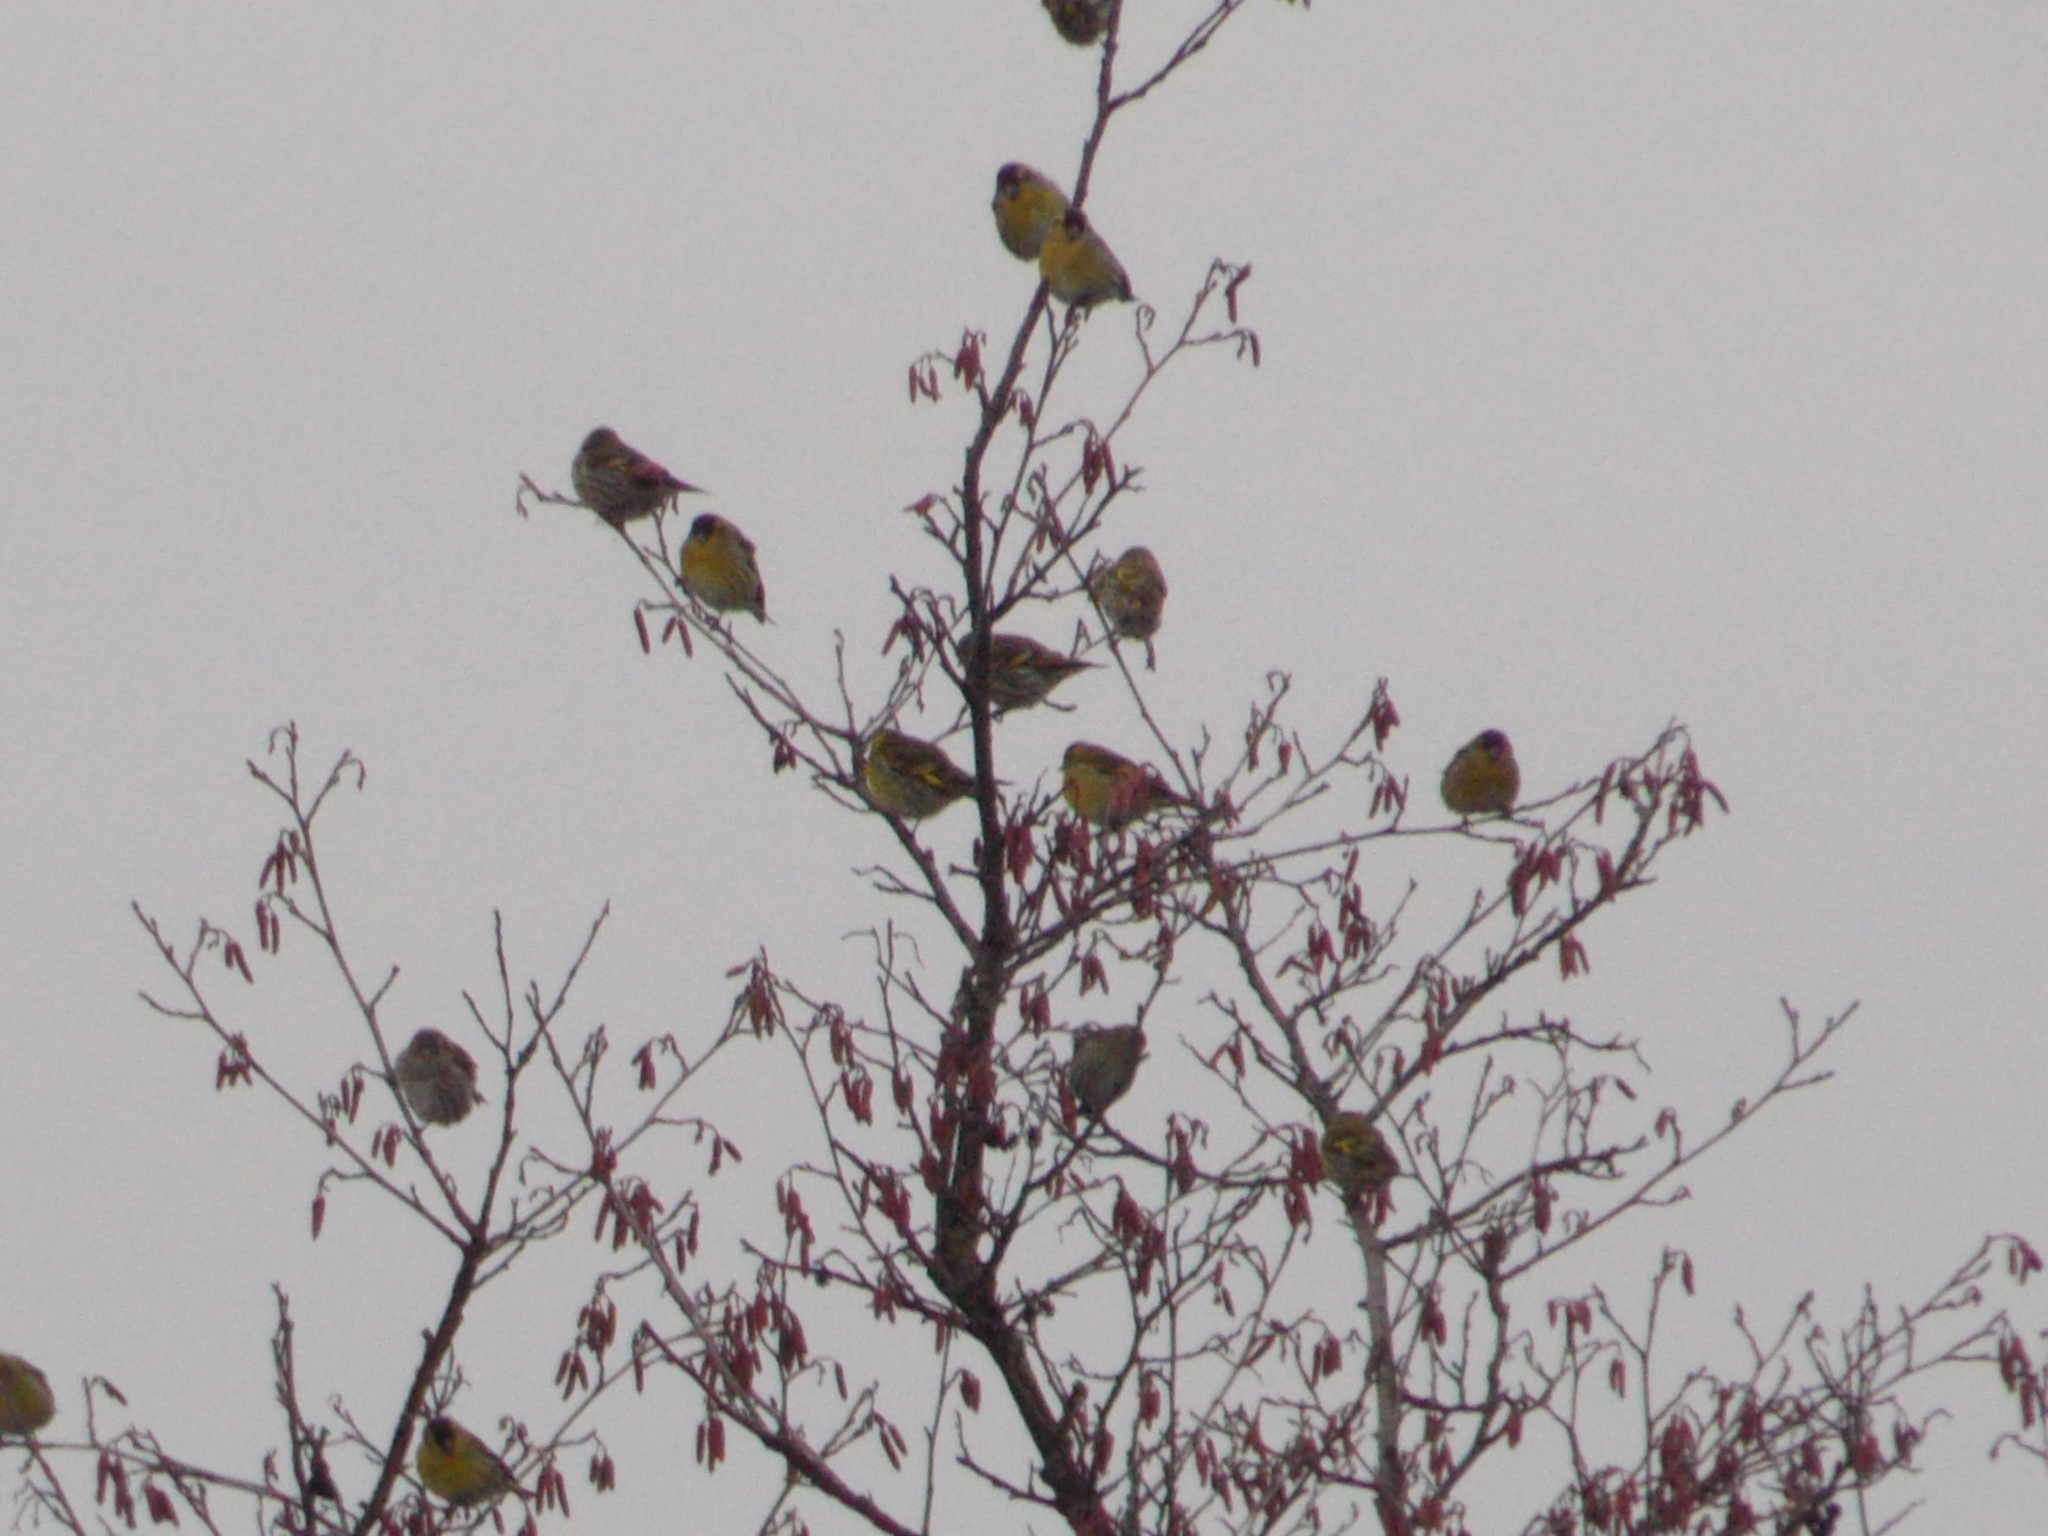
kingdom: Animalia
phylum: Chordata
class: Aves
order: Passeriformes
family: Fringillidae
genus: Spinus
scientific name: Spinus spinus
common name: Eurasian siskin
